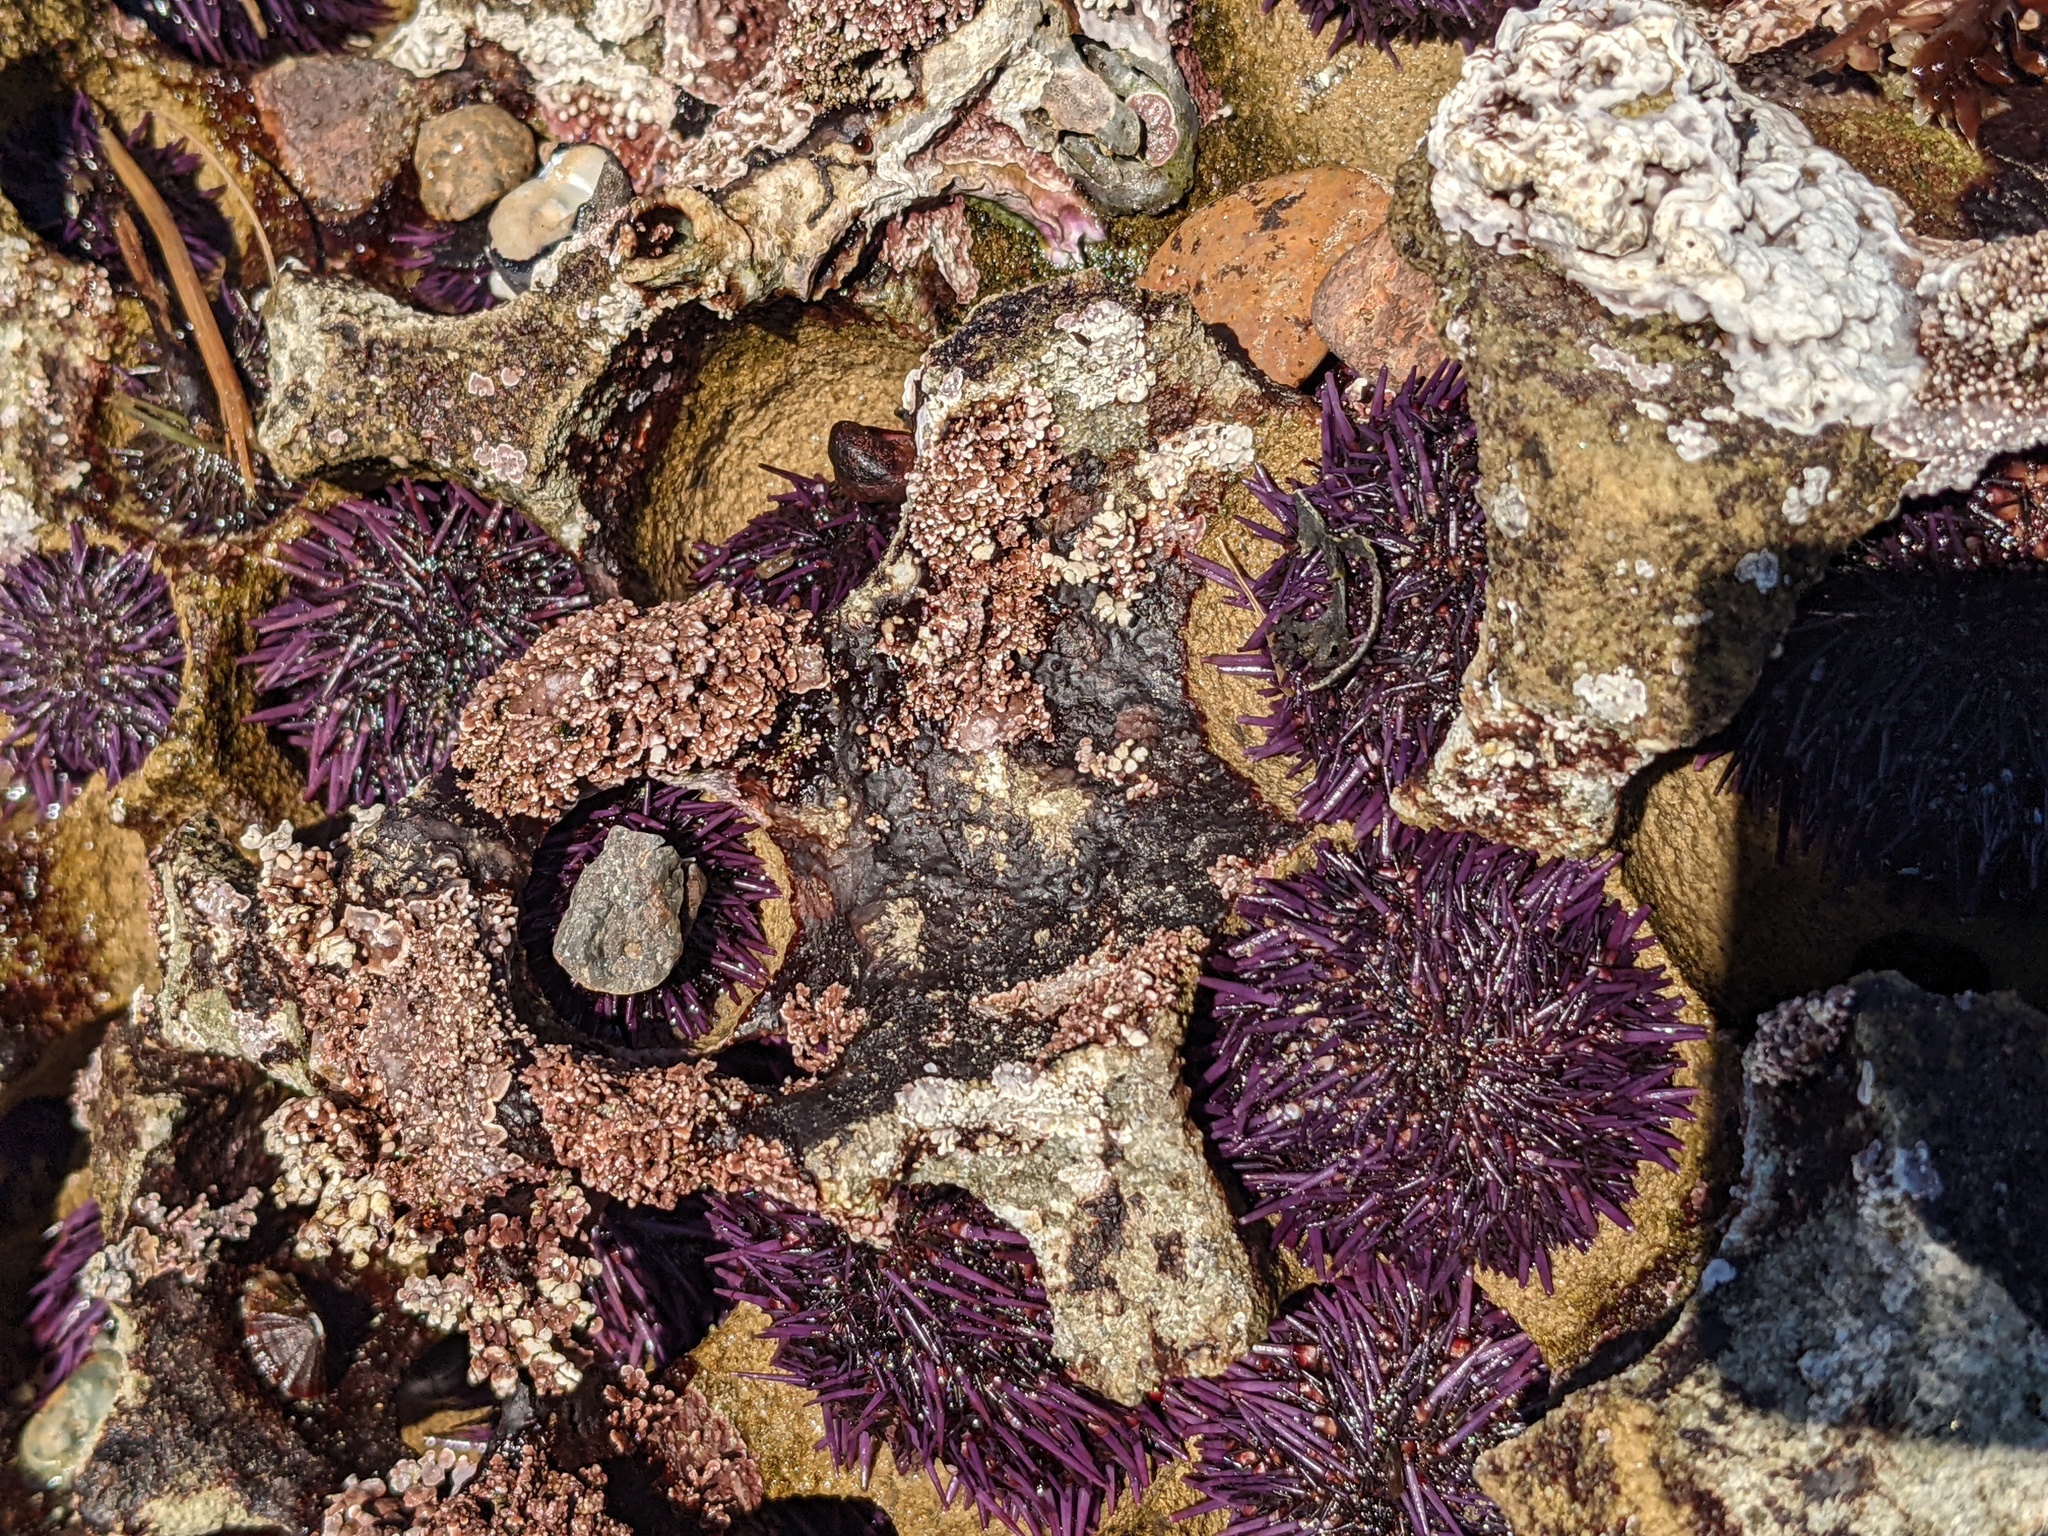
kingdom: Animalia
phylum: Echinodermata
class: Echinoidea
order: Camarodonta
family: Strongylocentrotidae
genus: Strongylocentrotus
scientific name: Strongylocentrotus purpuratus
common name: Purple sea urchin
